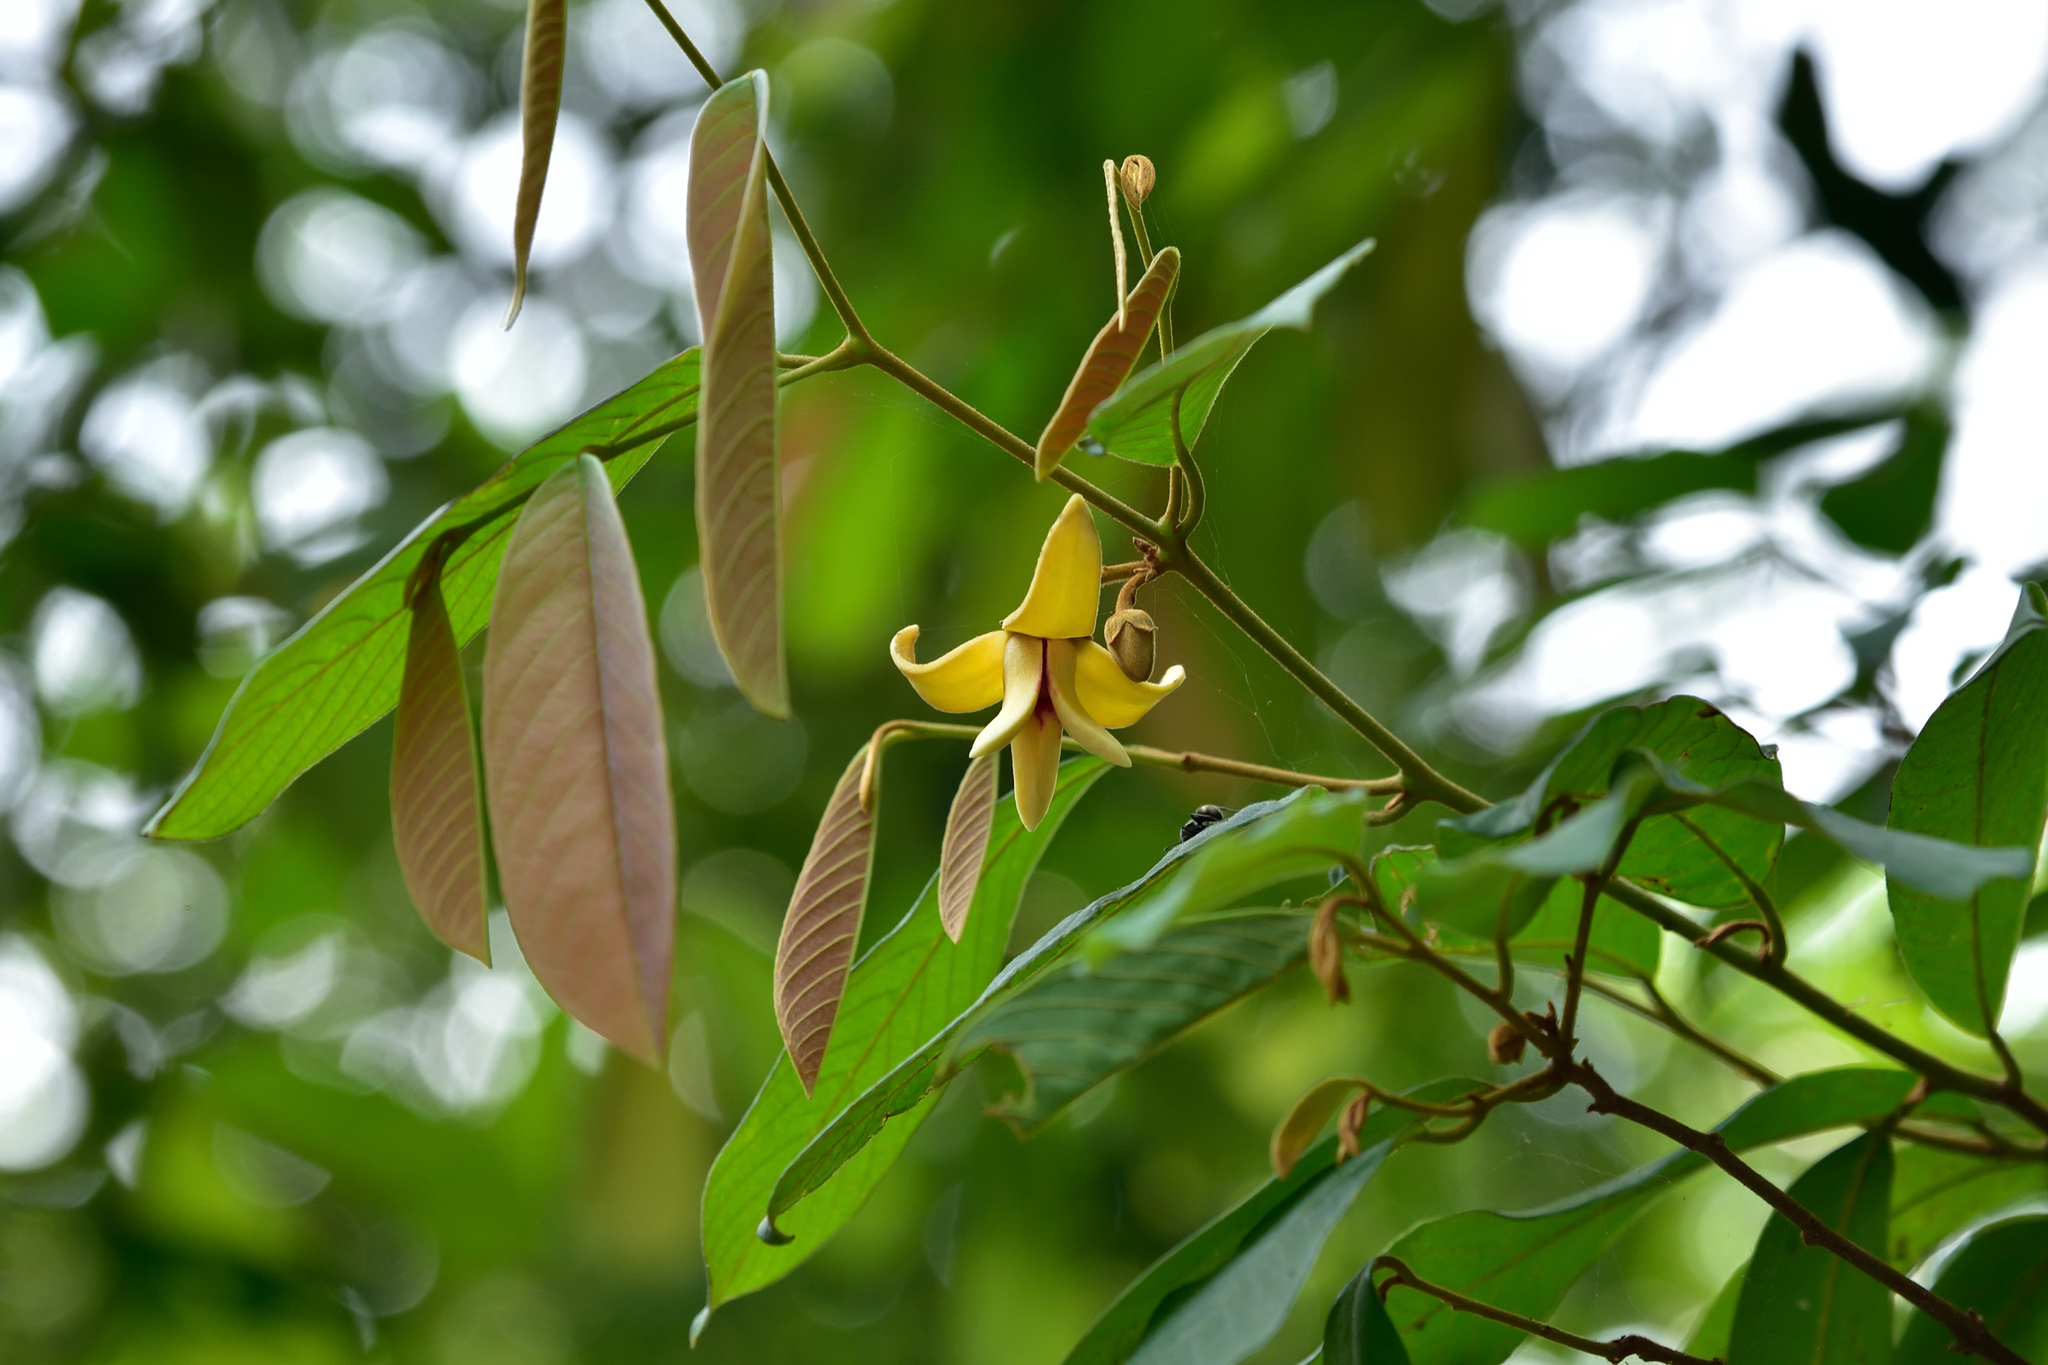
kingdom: Plantae
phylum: Tracheophyta
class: Magnoliopsida
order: Magnoliales
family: Annonaceae
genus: Fissistigma
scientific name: Fissistigma oldhamii
